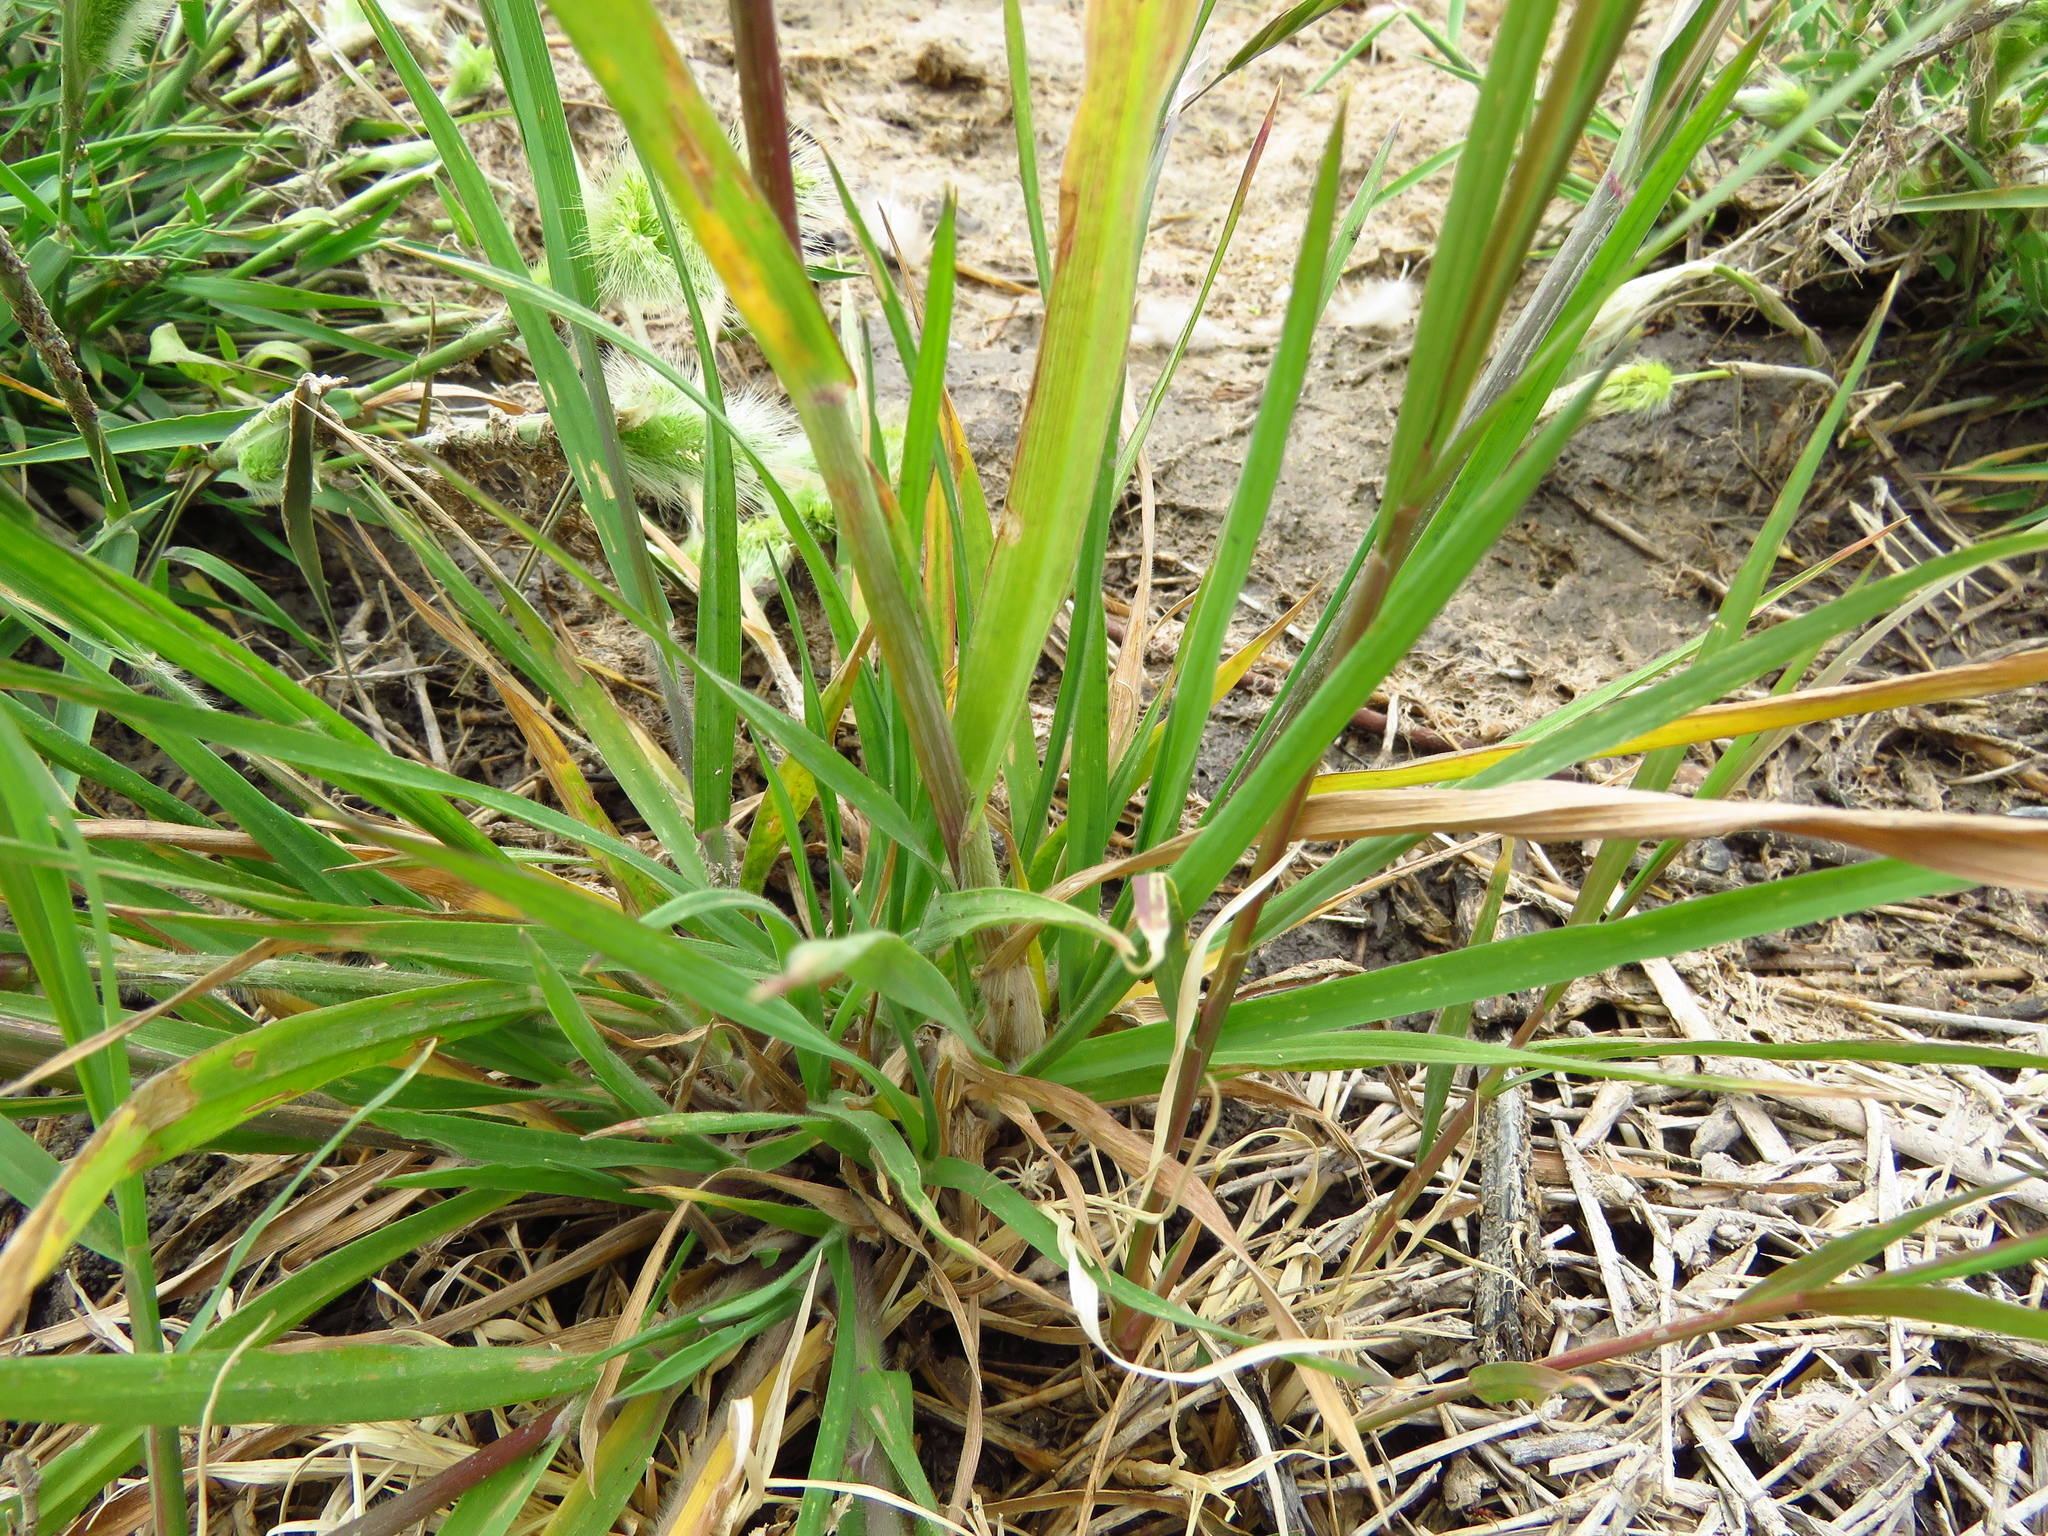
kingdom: Plantae
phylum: Tracheophyta
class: Liliopsida
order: Poales
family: Poaceae
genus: Bromus
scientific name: Bromus catharticus
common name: Rescuegrass
